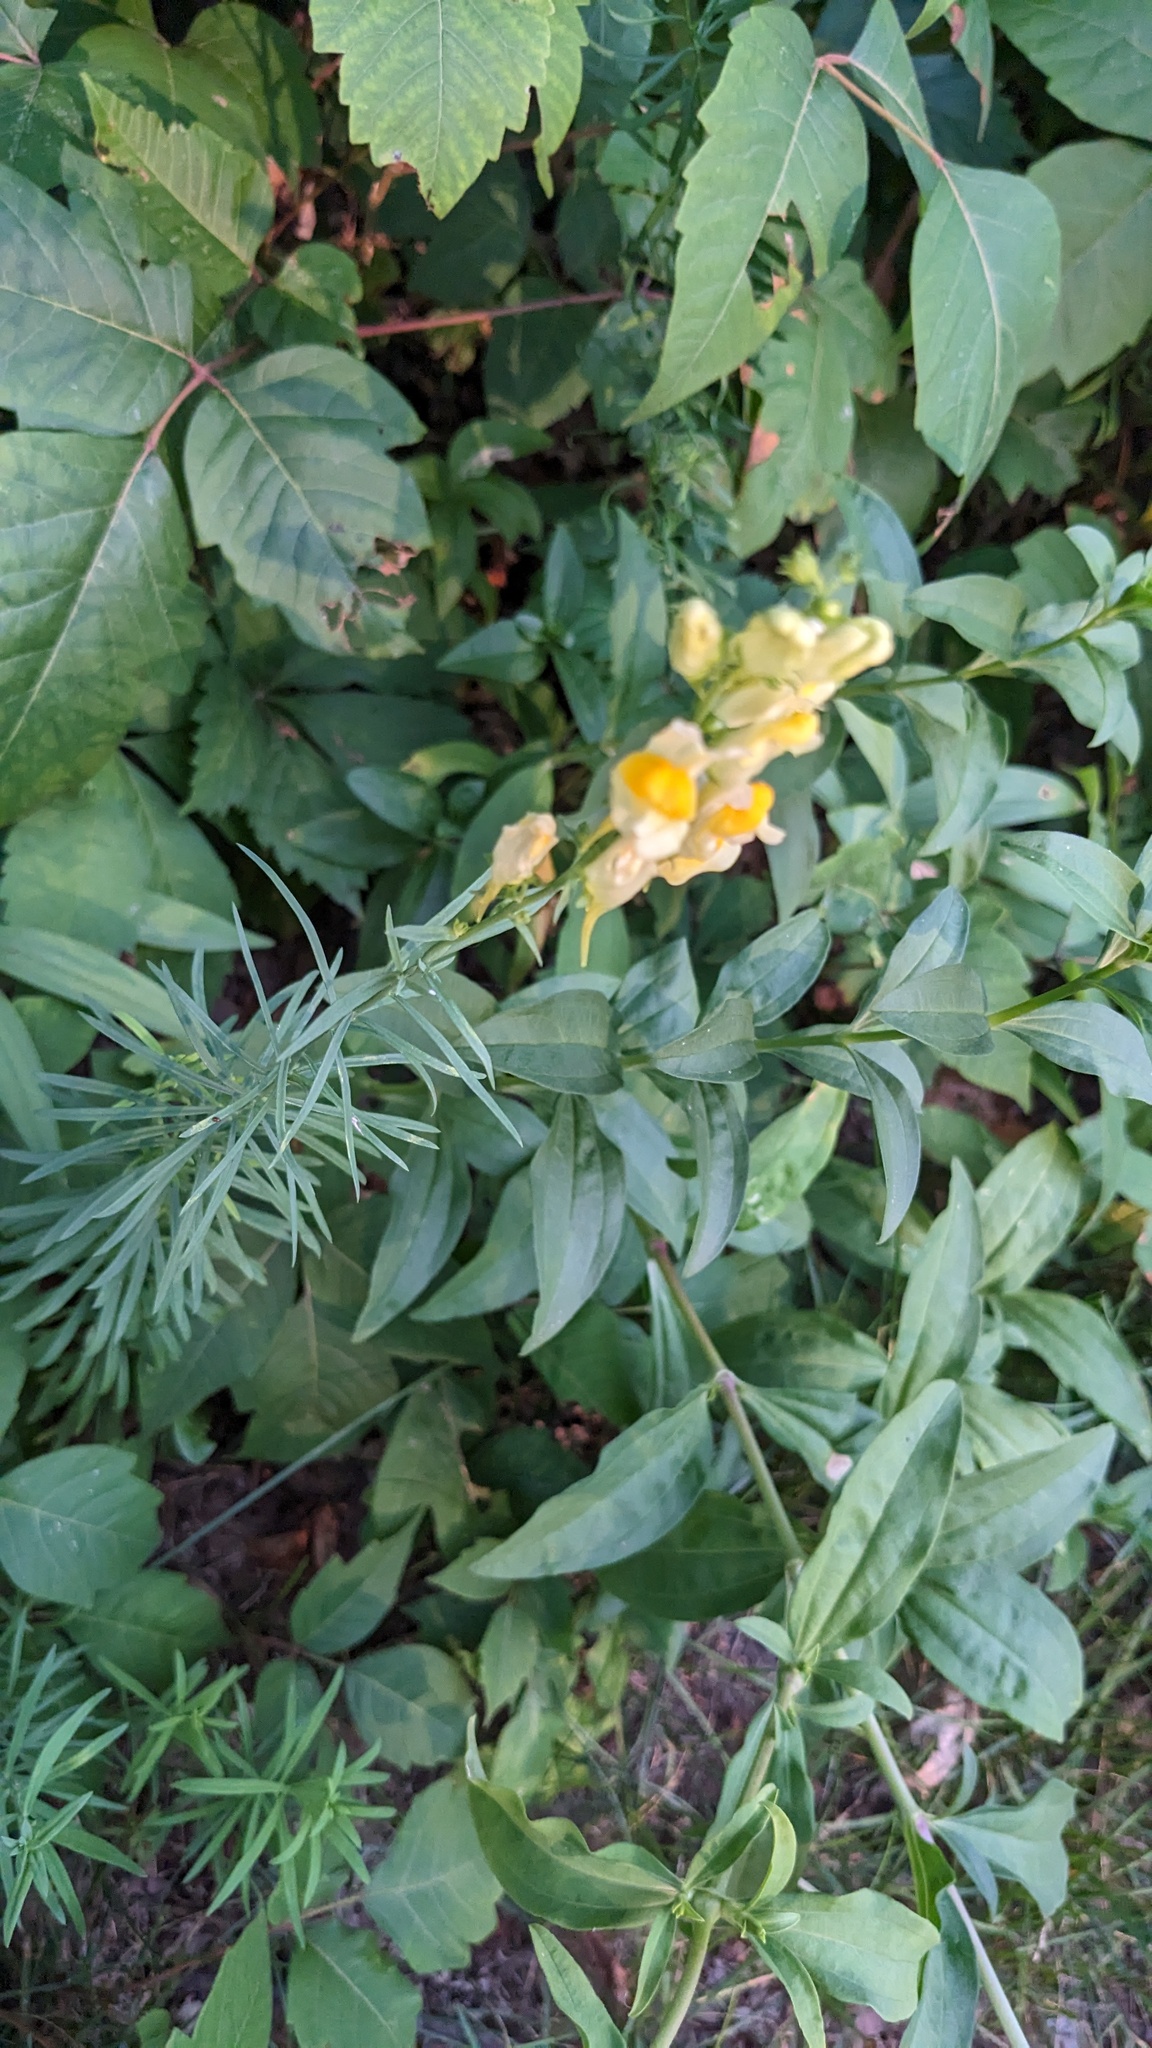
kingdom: Plantae
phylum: Tracheophyta
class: Magnoliopsida
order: Lamiales
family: Plantaginaceae
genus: Linaria
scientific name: Linaria vulgaris
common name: Butter and eggs
